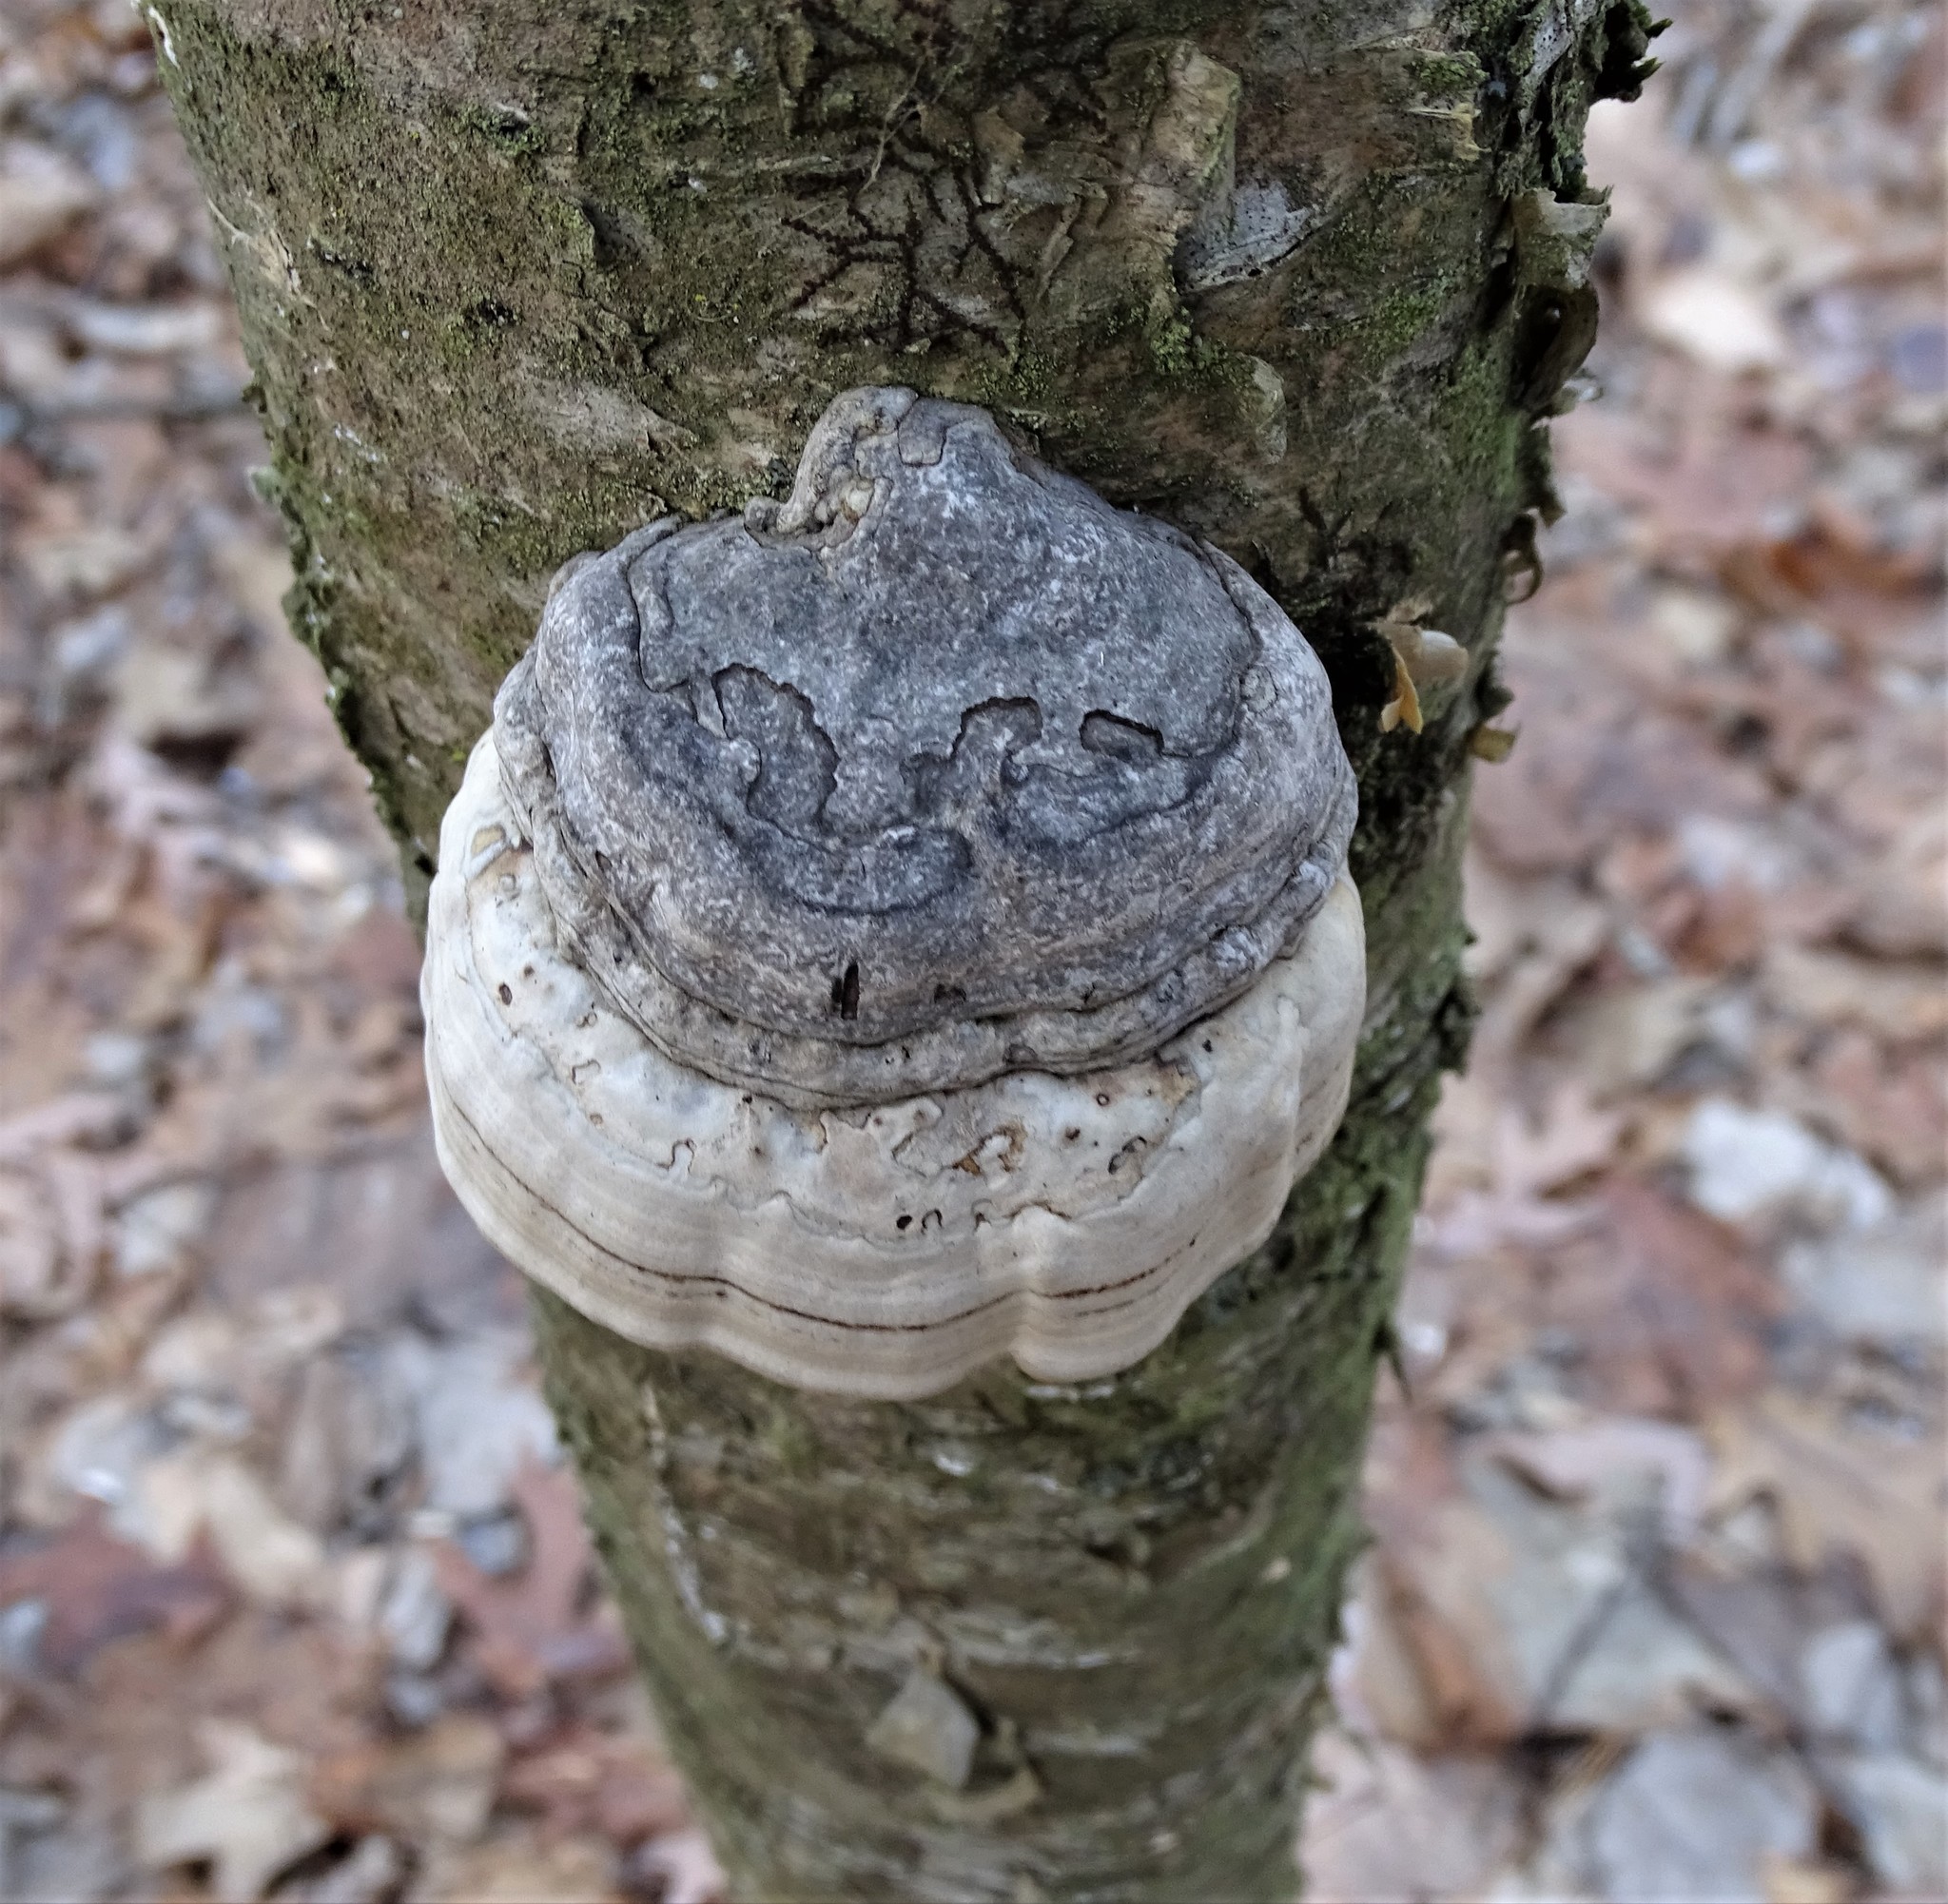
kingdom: Fungi
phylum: Basidiomycota
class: Agaricomycetes
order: Polyporales
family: Polyporaceae
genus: Fomes
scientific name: Fomes fomentarius
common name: Hoof fungus
